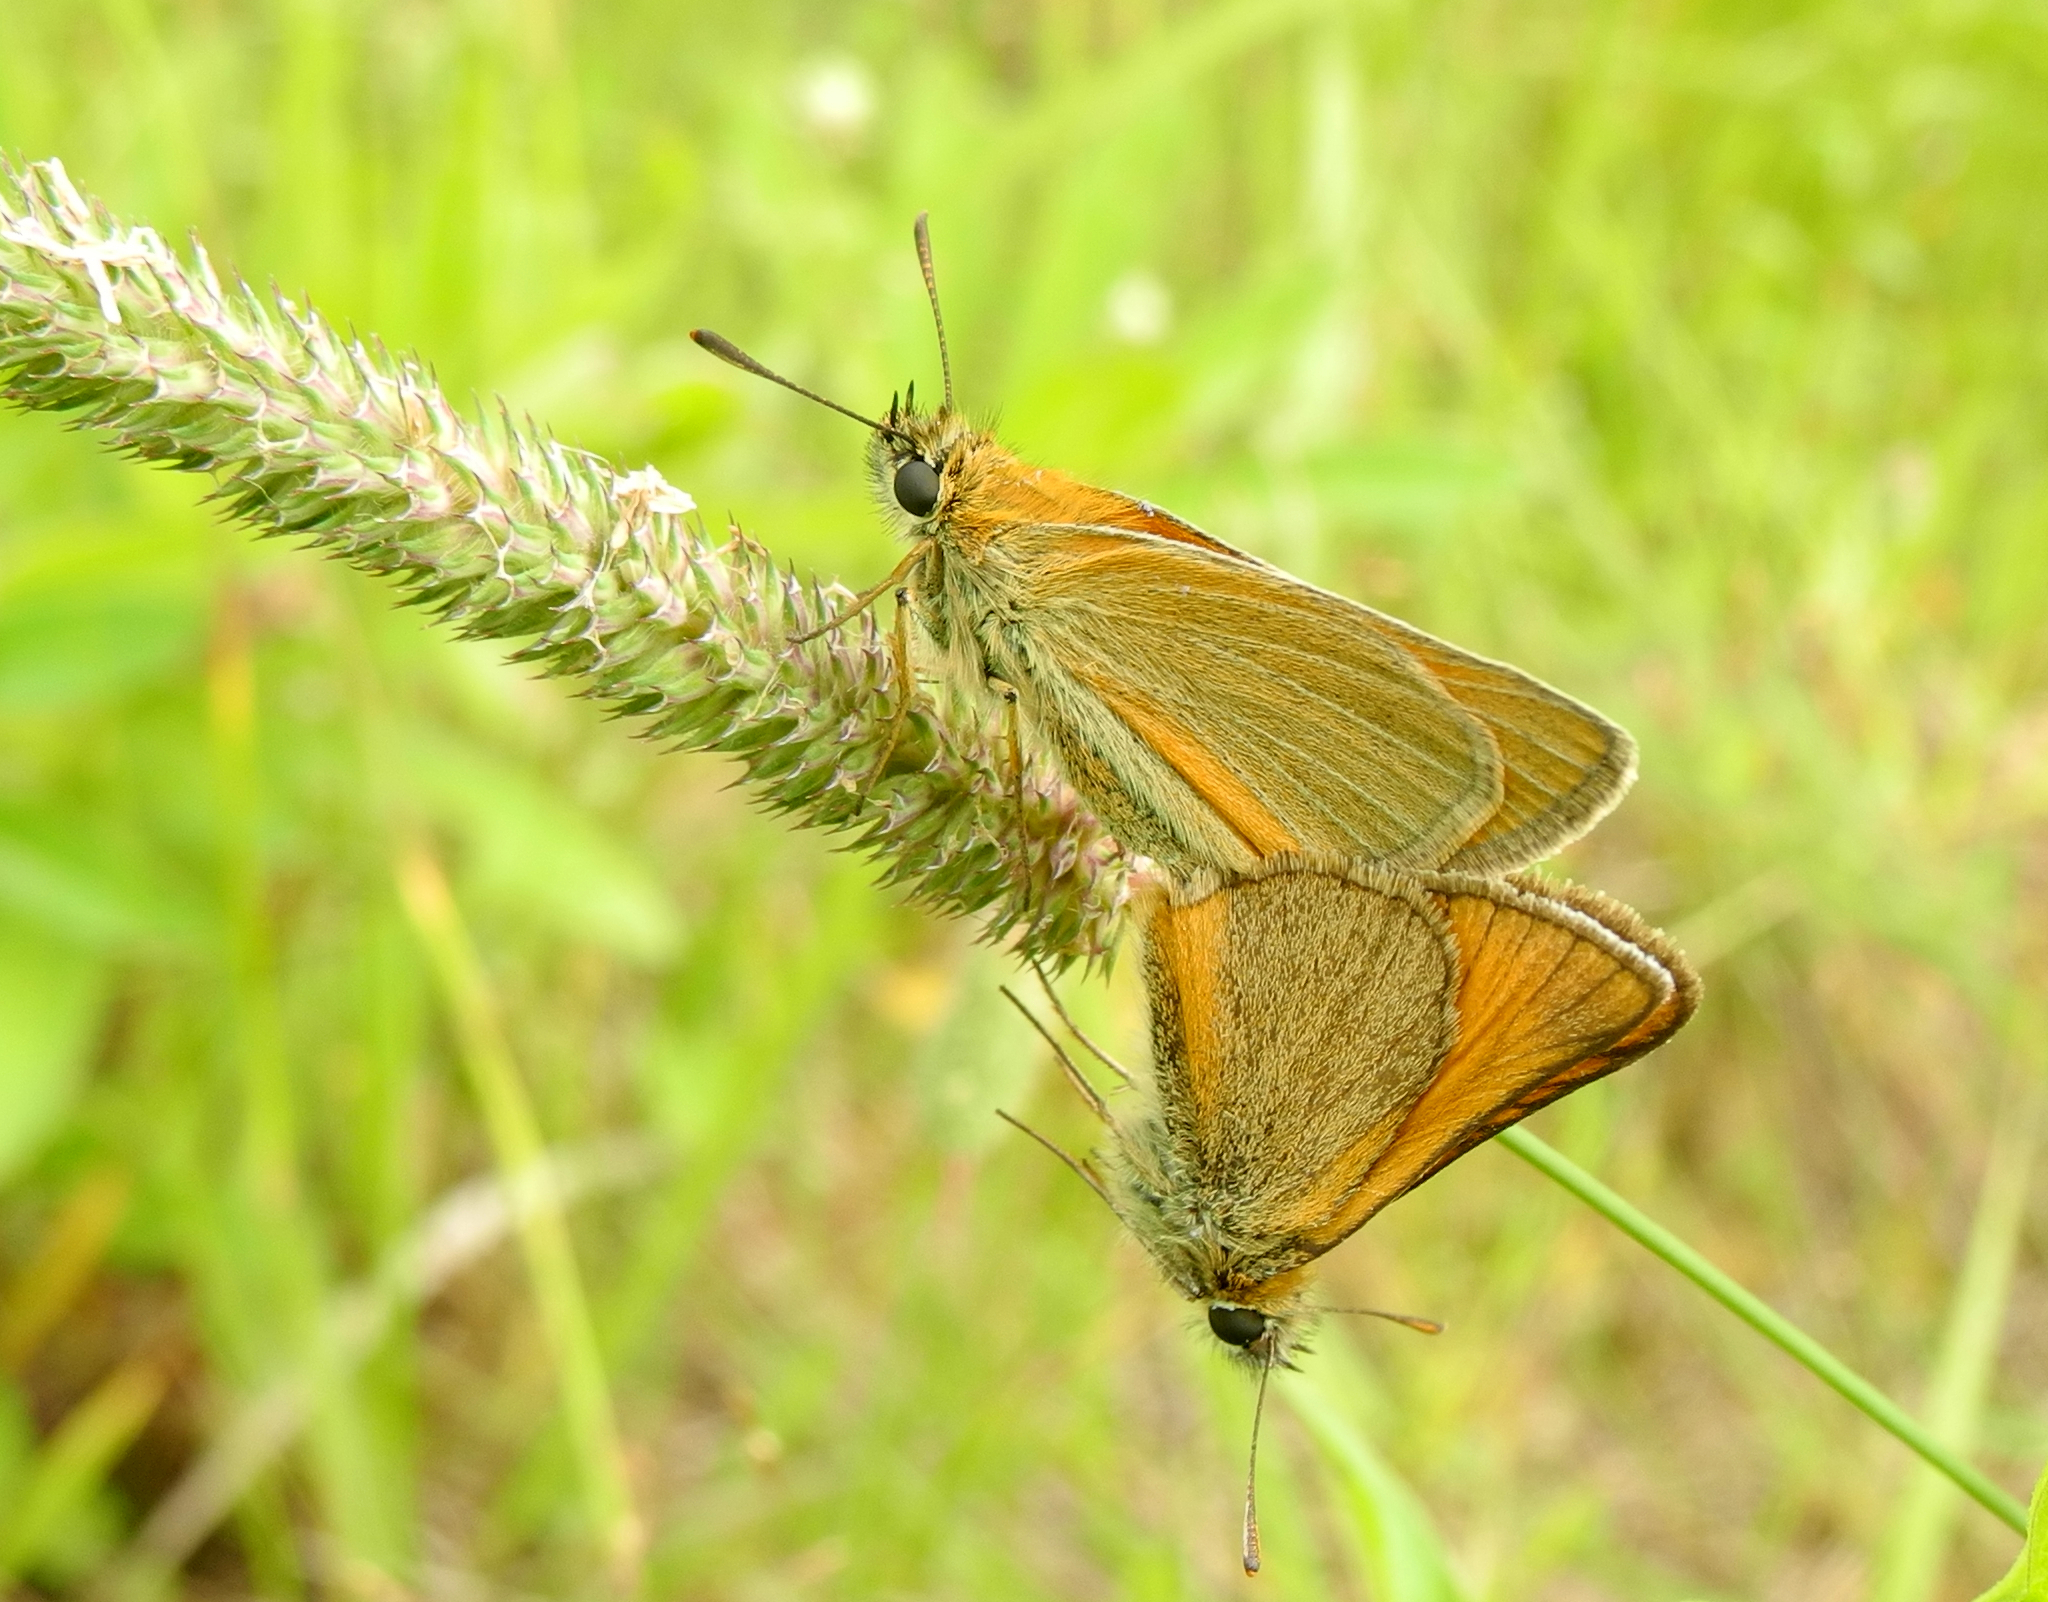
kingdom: Animalia
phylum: Arthropoda
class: Insecta
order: Lepidoptera
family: Hesperiidae
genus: Thymelicus
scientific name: Thymelicus sylvestris
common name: Small skipper
